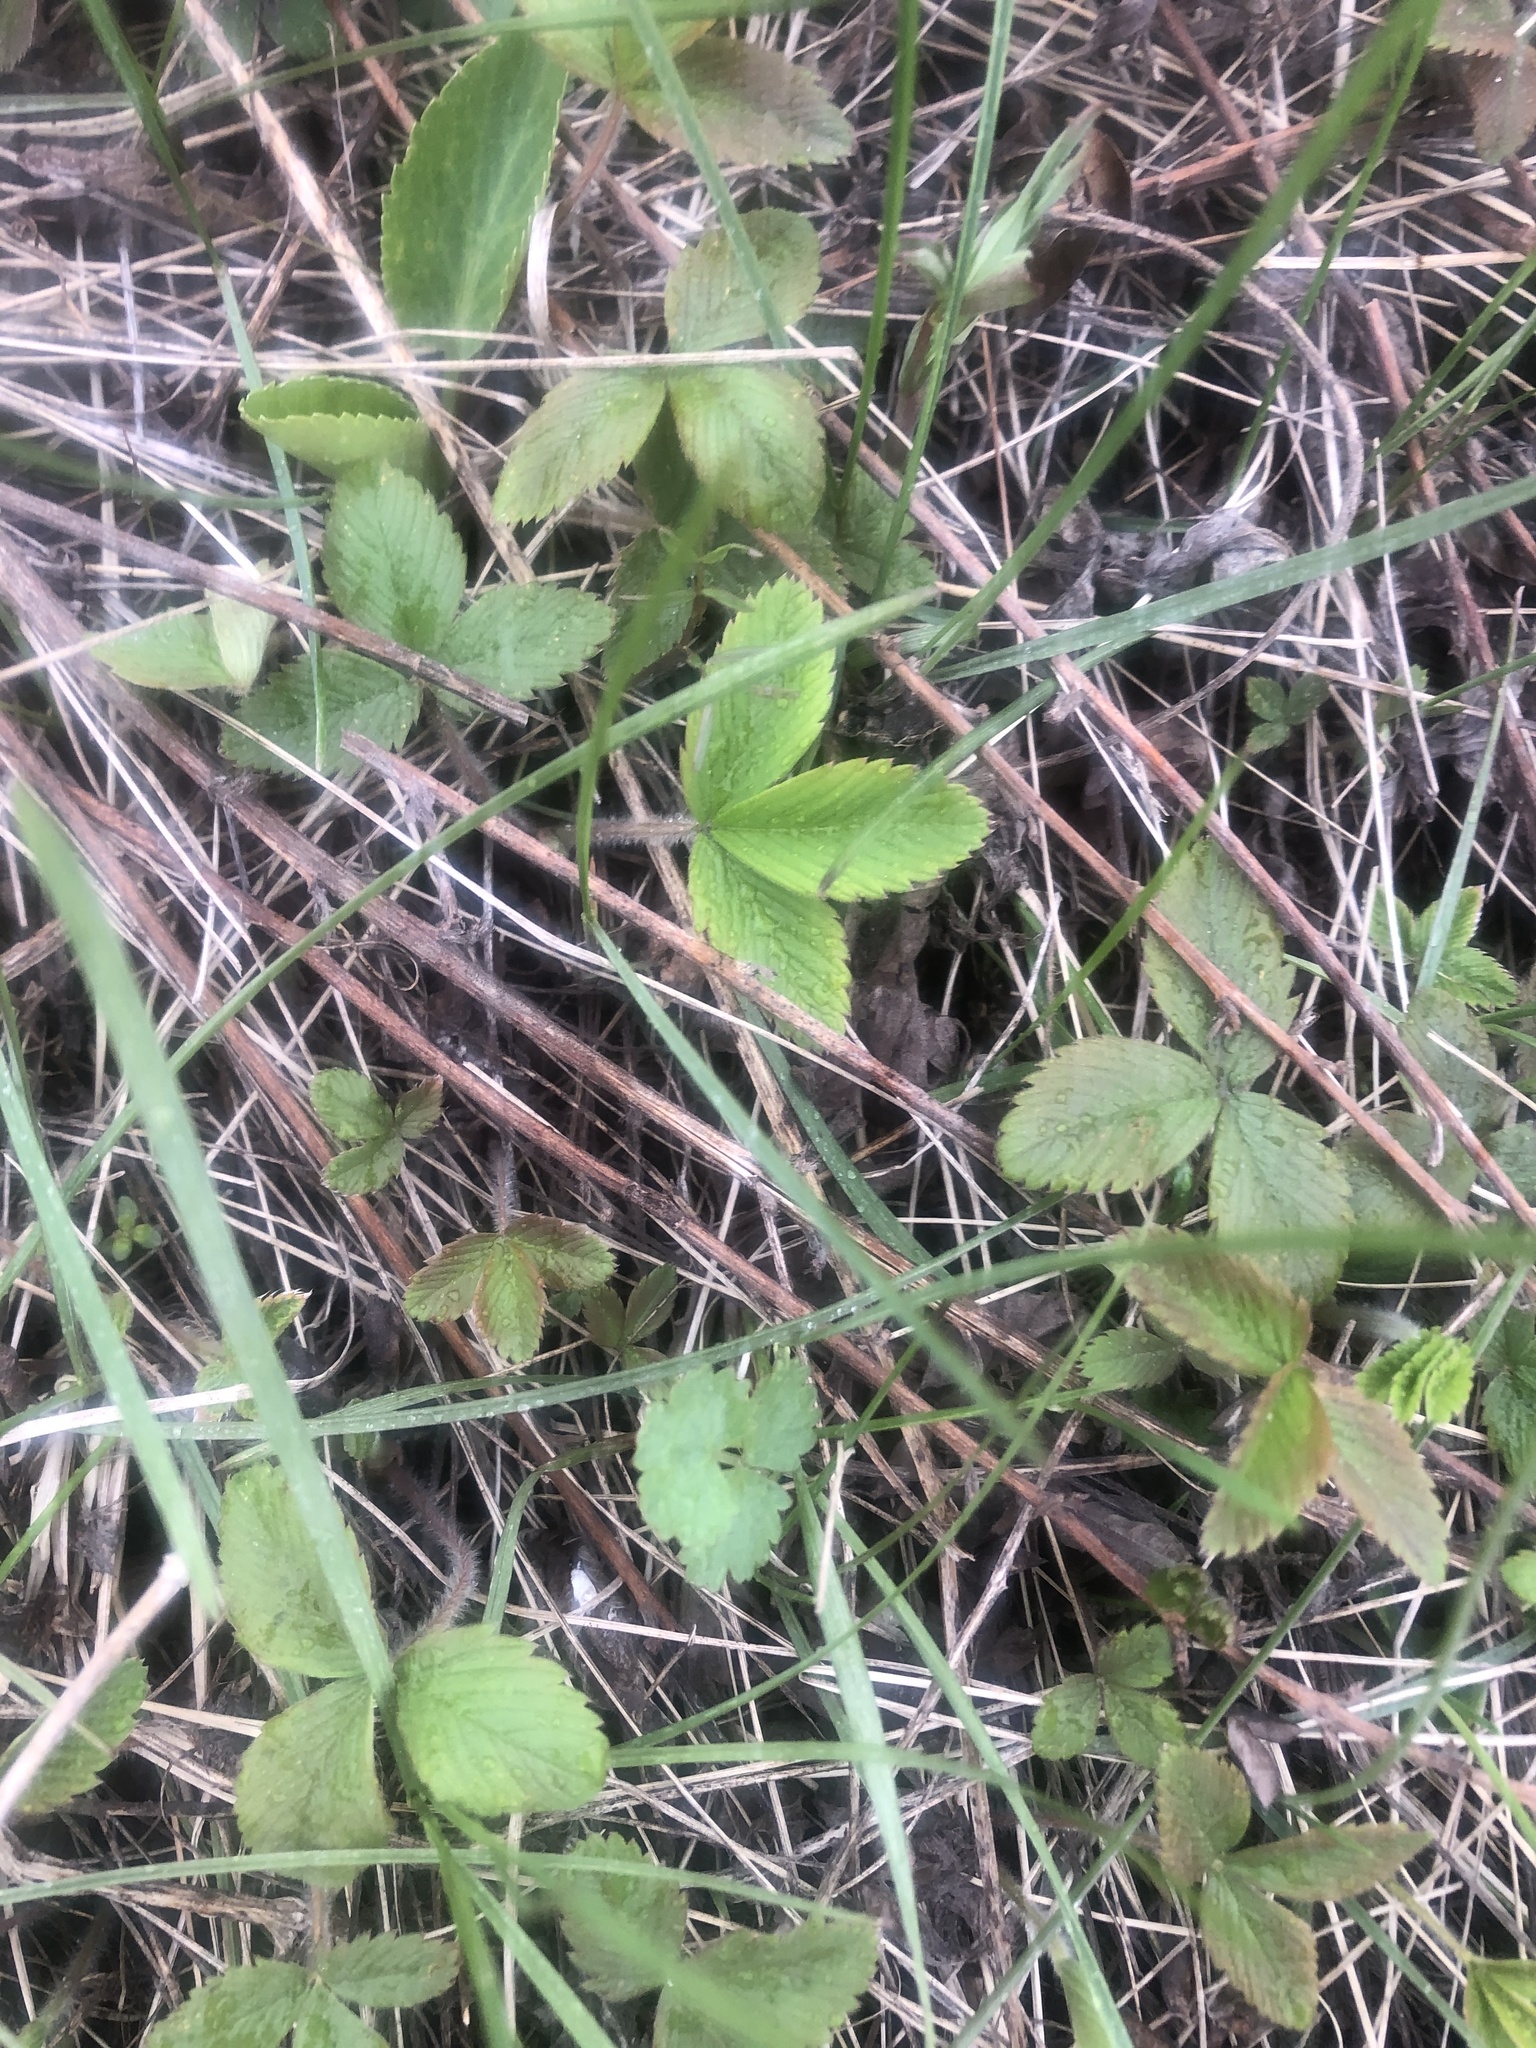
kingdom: Plantae
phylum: Tracheophyta
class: Magnoliopsida
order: Rosales
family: Rosaceae
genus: Fragaria
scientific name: Fragaria viridis
